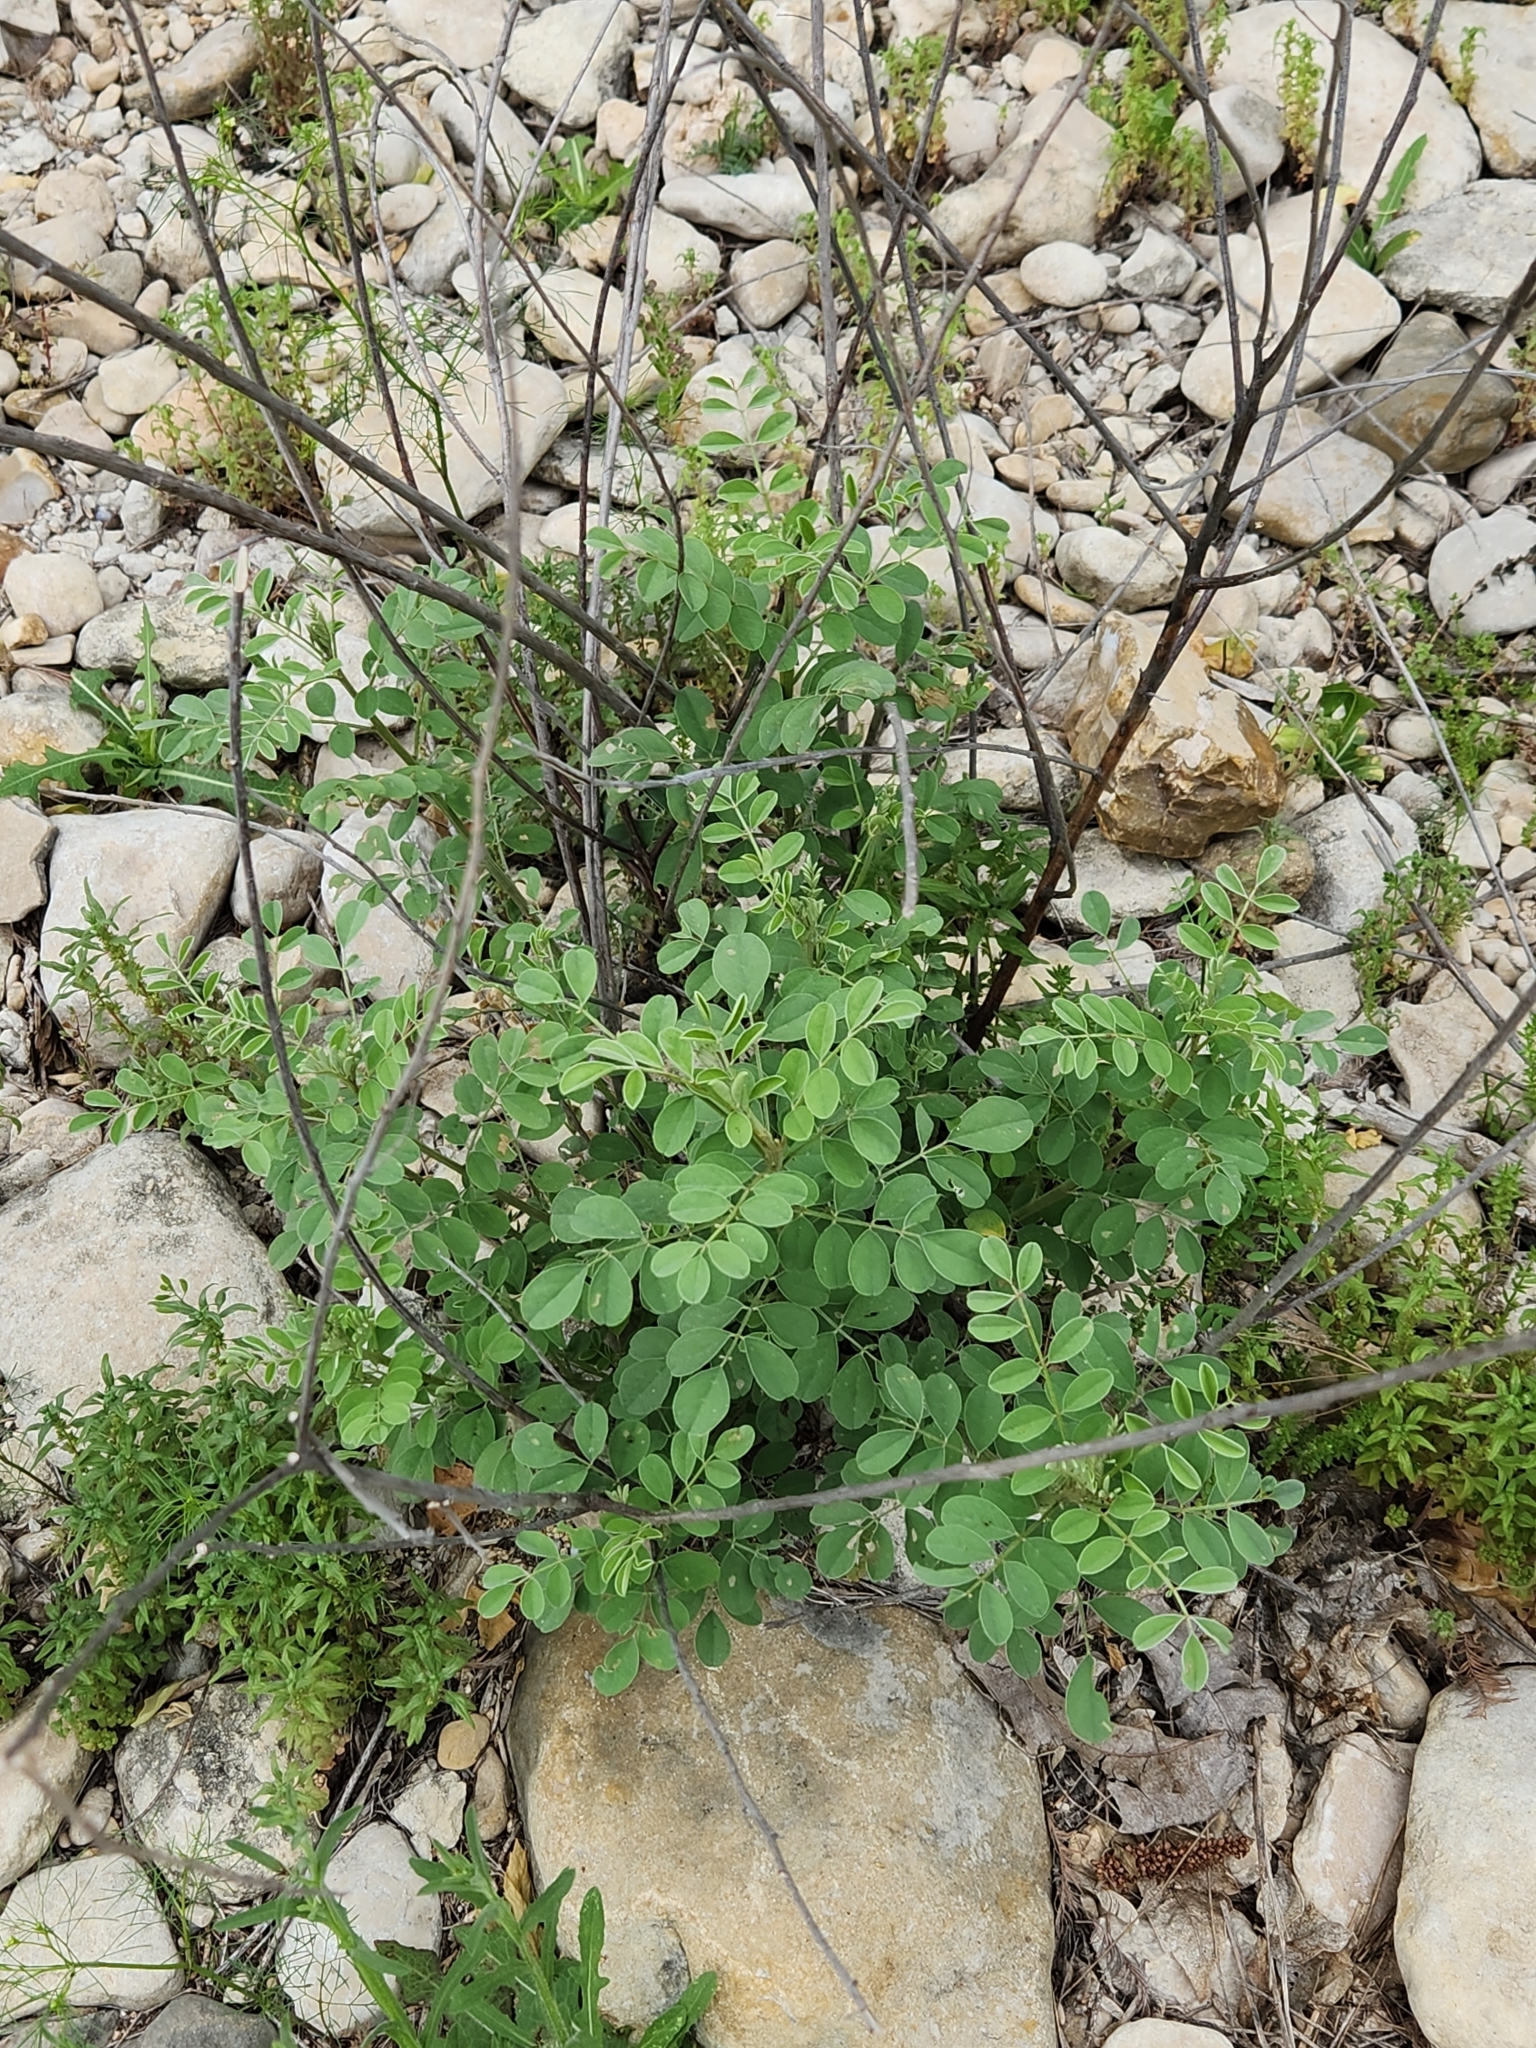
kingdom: Plantae
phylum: Tracheophyta
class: Magnoliopsida
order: Fabales
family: Fabaceae
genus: Indigofera
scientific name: Indigofera lindheimeriana
